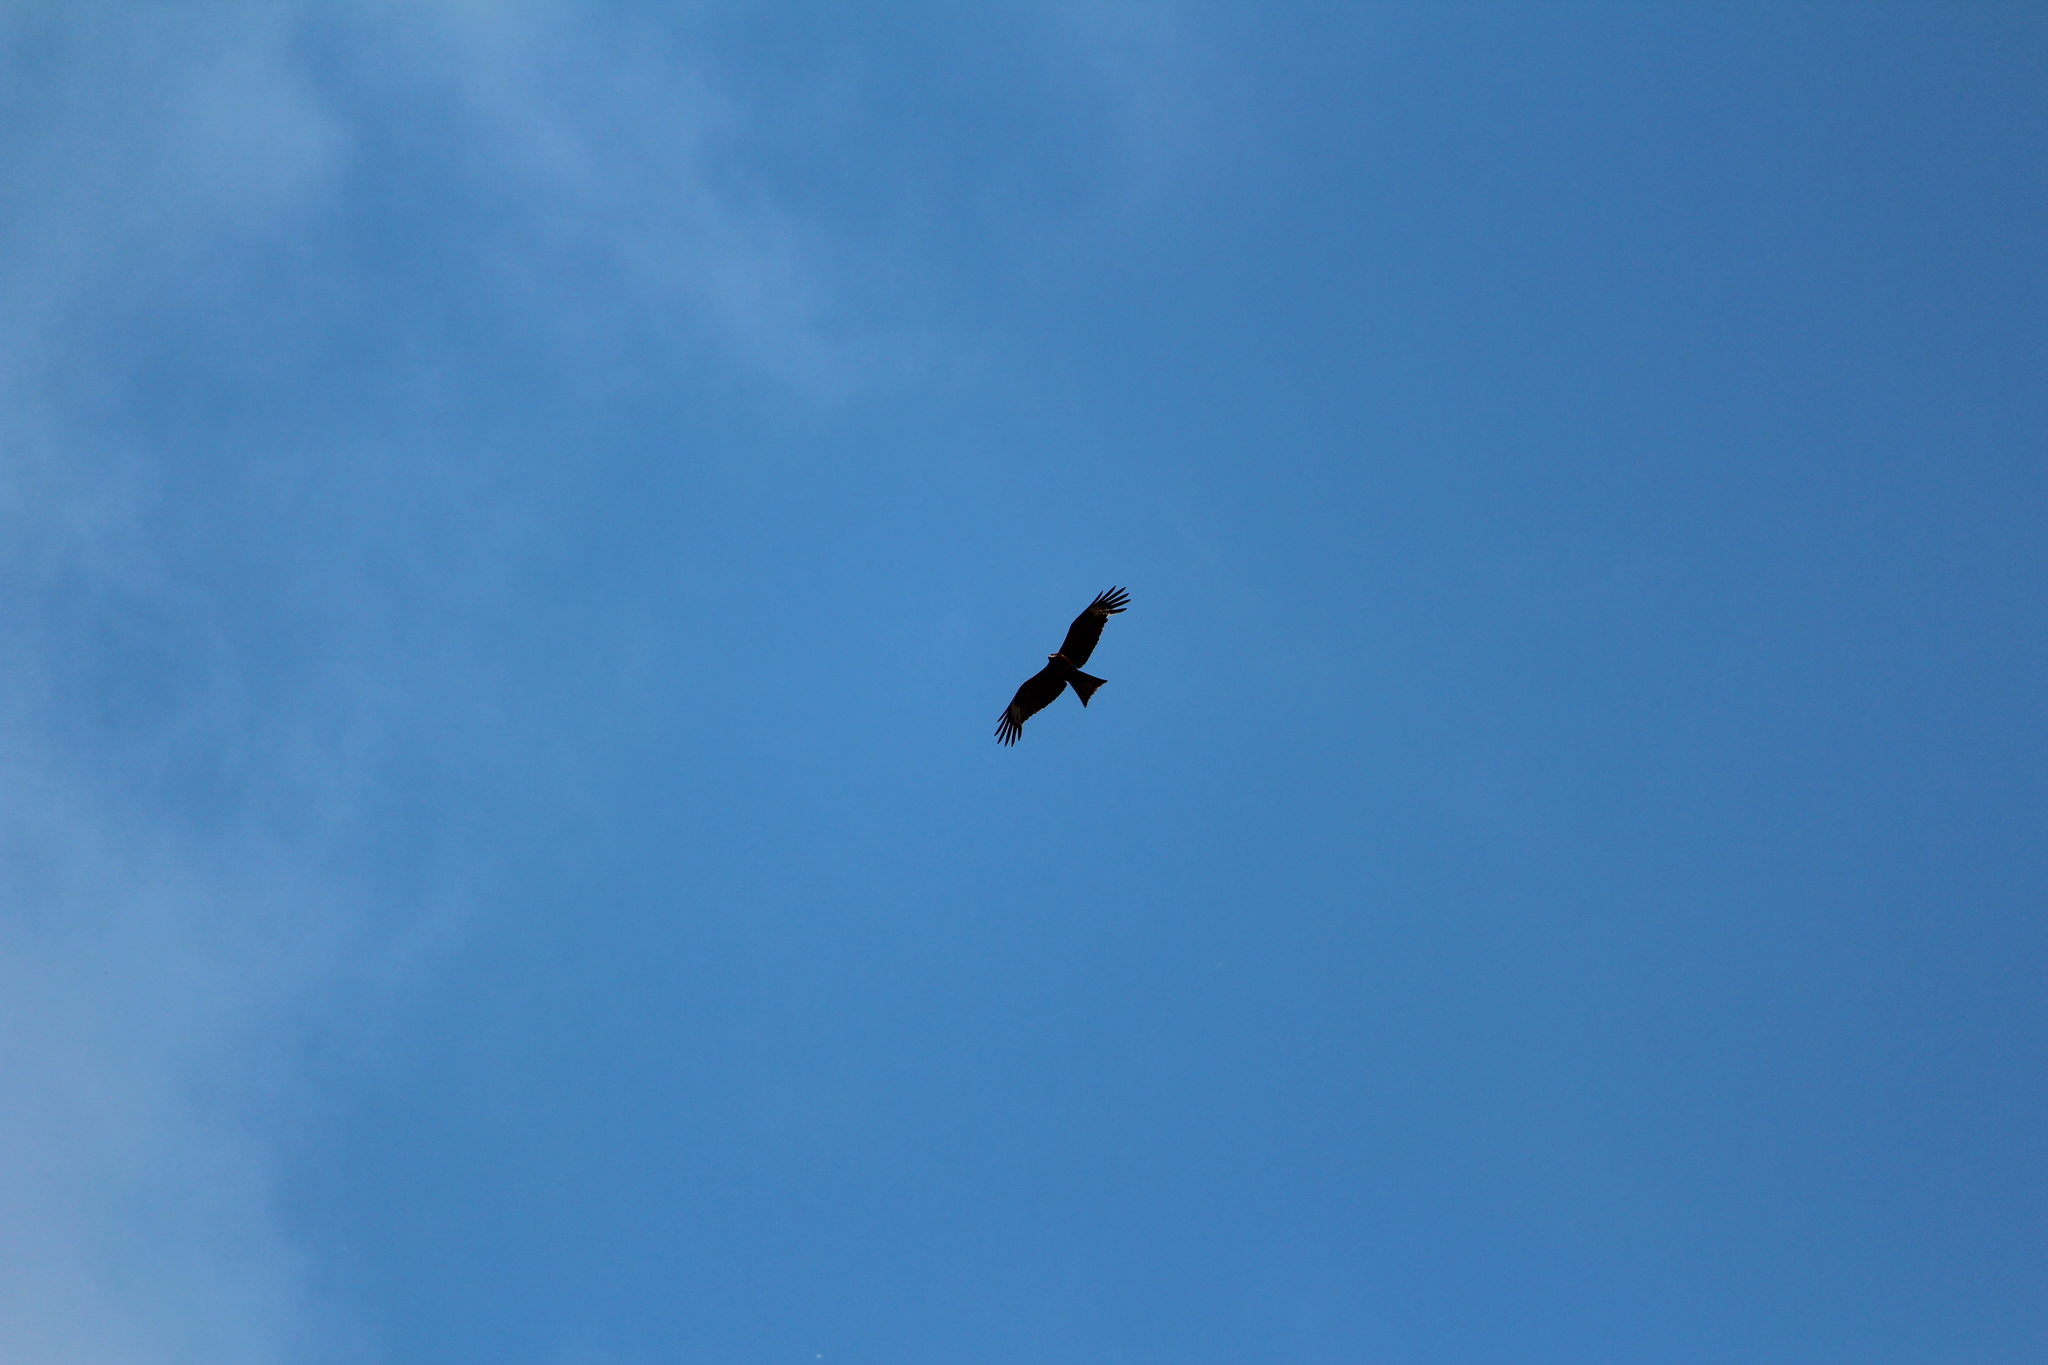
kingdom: Animalia
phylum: Chordata
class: Aves
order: Accipitriformes
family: Accipitridae
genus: Milvus
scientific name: Milvus migrans
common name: Black kite
